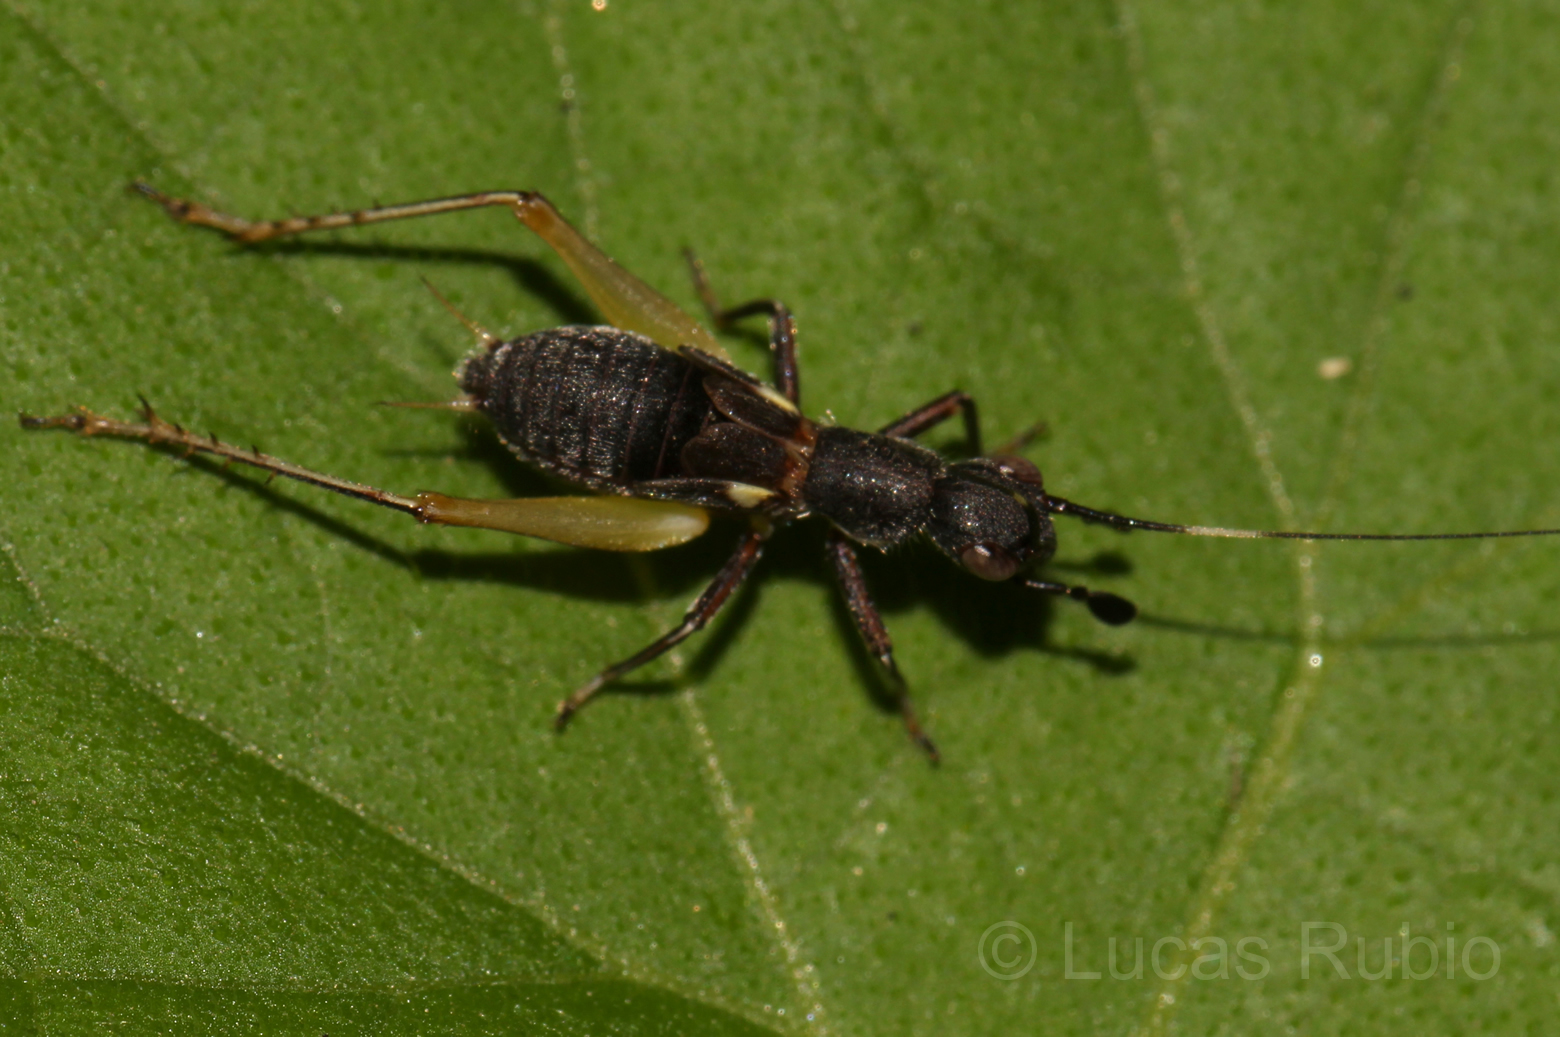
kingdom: Animalia
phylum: Arthropoda
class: Insecta
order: Orthoptera
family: Trigonidiidae
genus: Cranistus
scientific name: Cranistus colliurides
